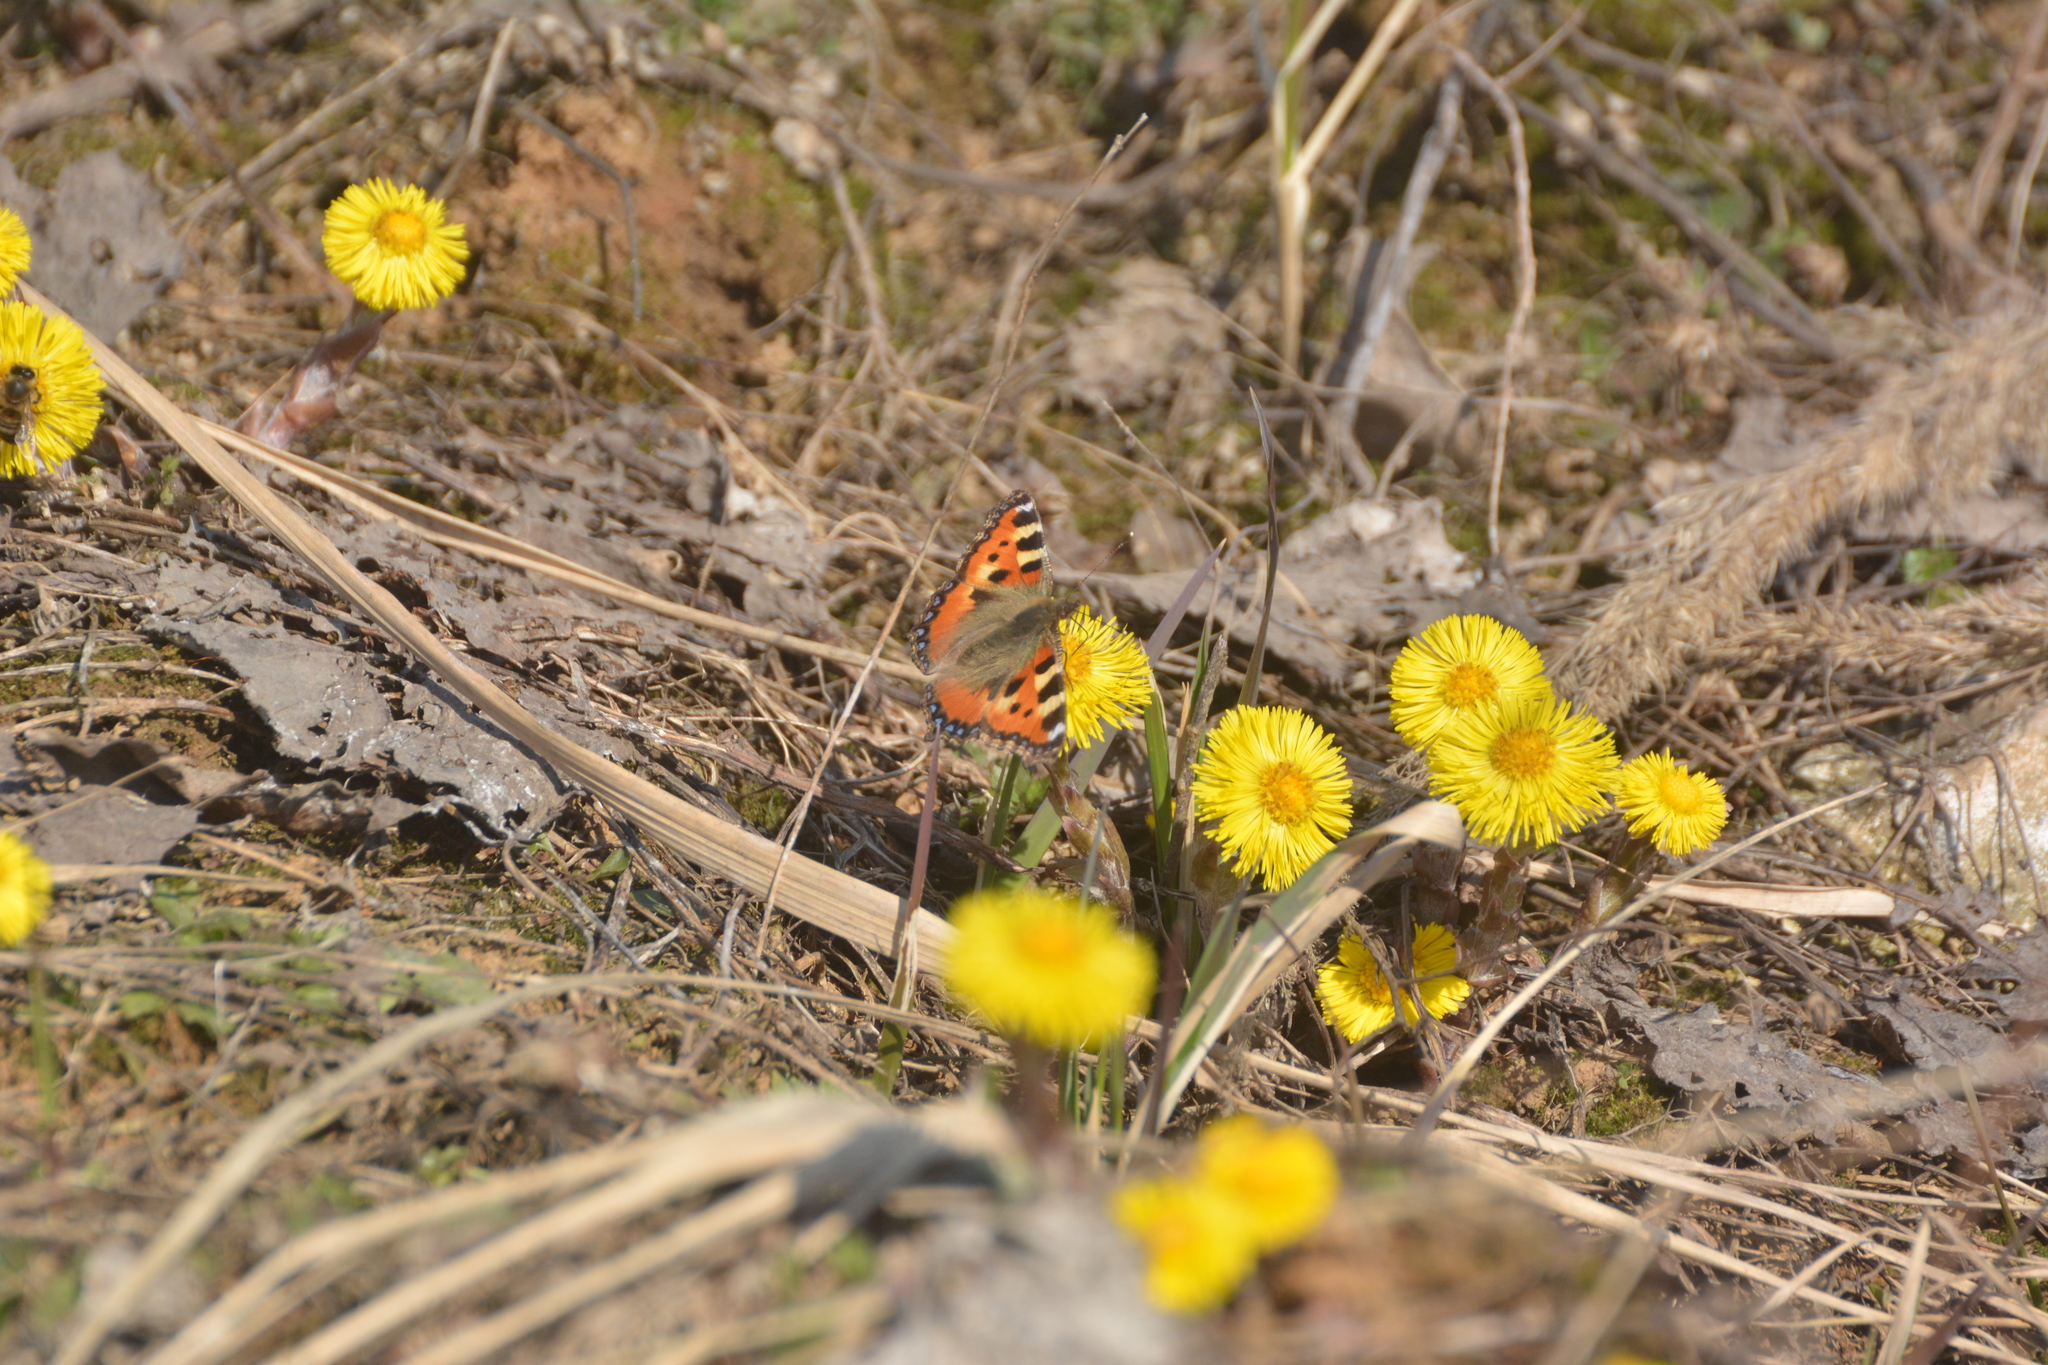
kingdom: Animalia
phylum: Arthropoda
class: Insecta
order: Lepidoptera
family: Nymphalidae
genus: Aglais
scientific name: Aglais urticae
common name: Small tortoiseshell
